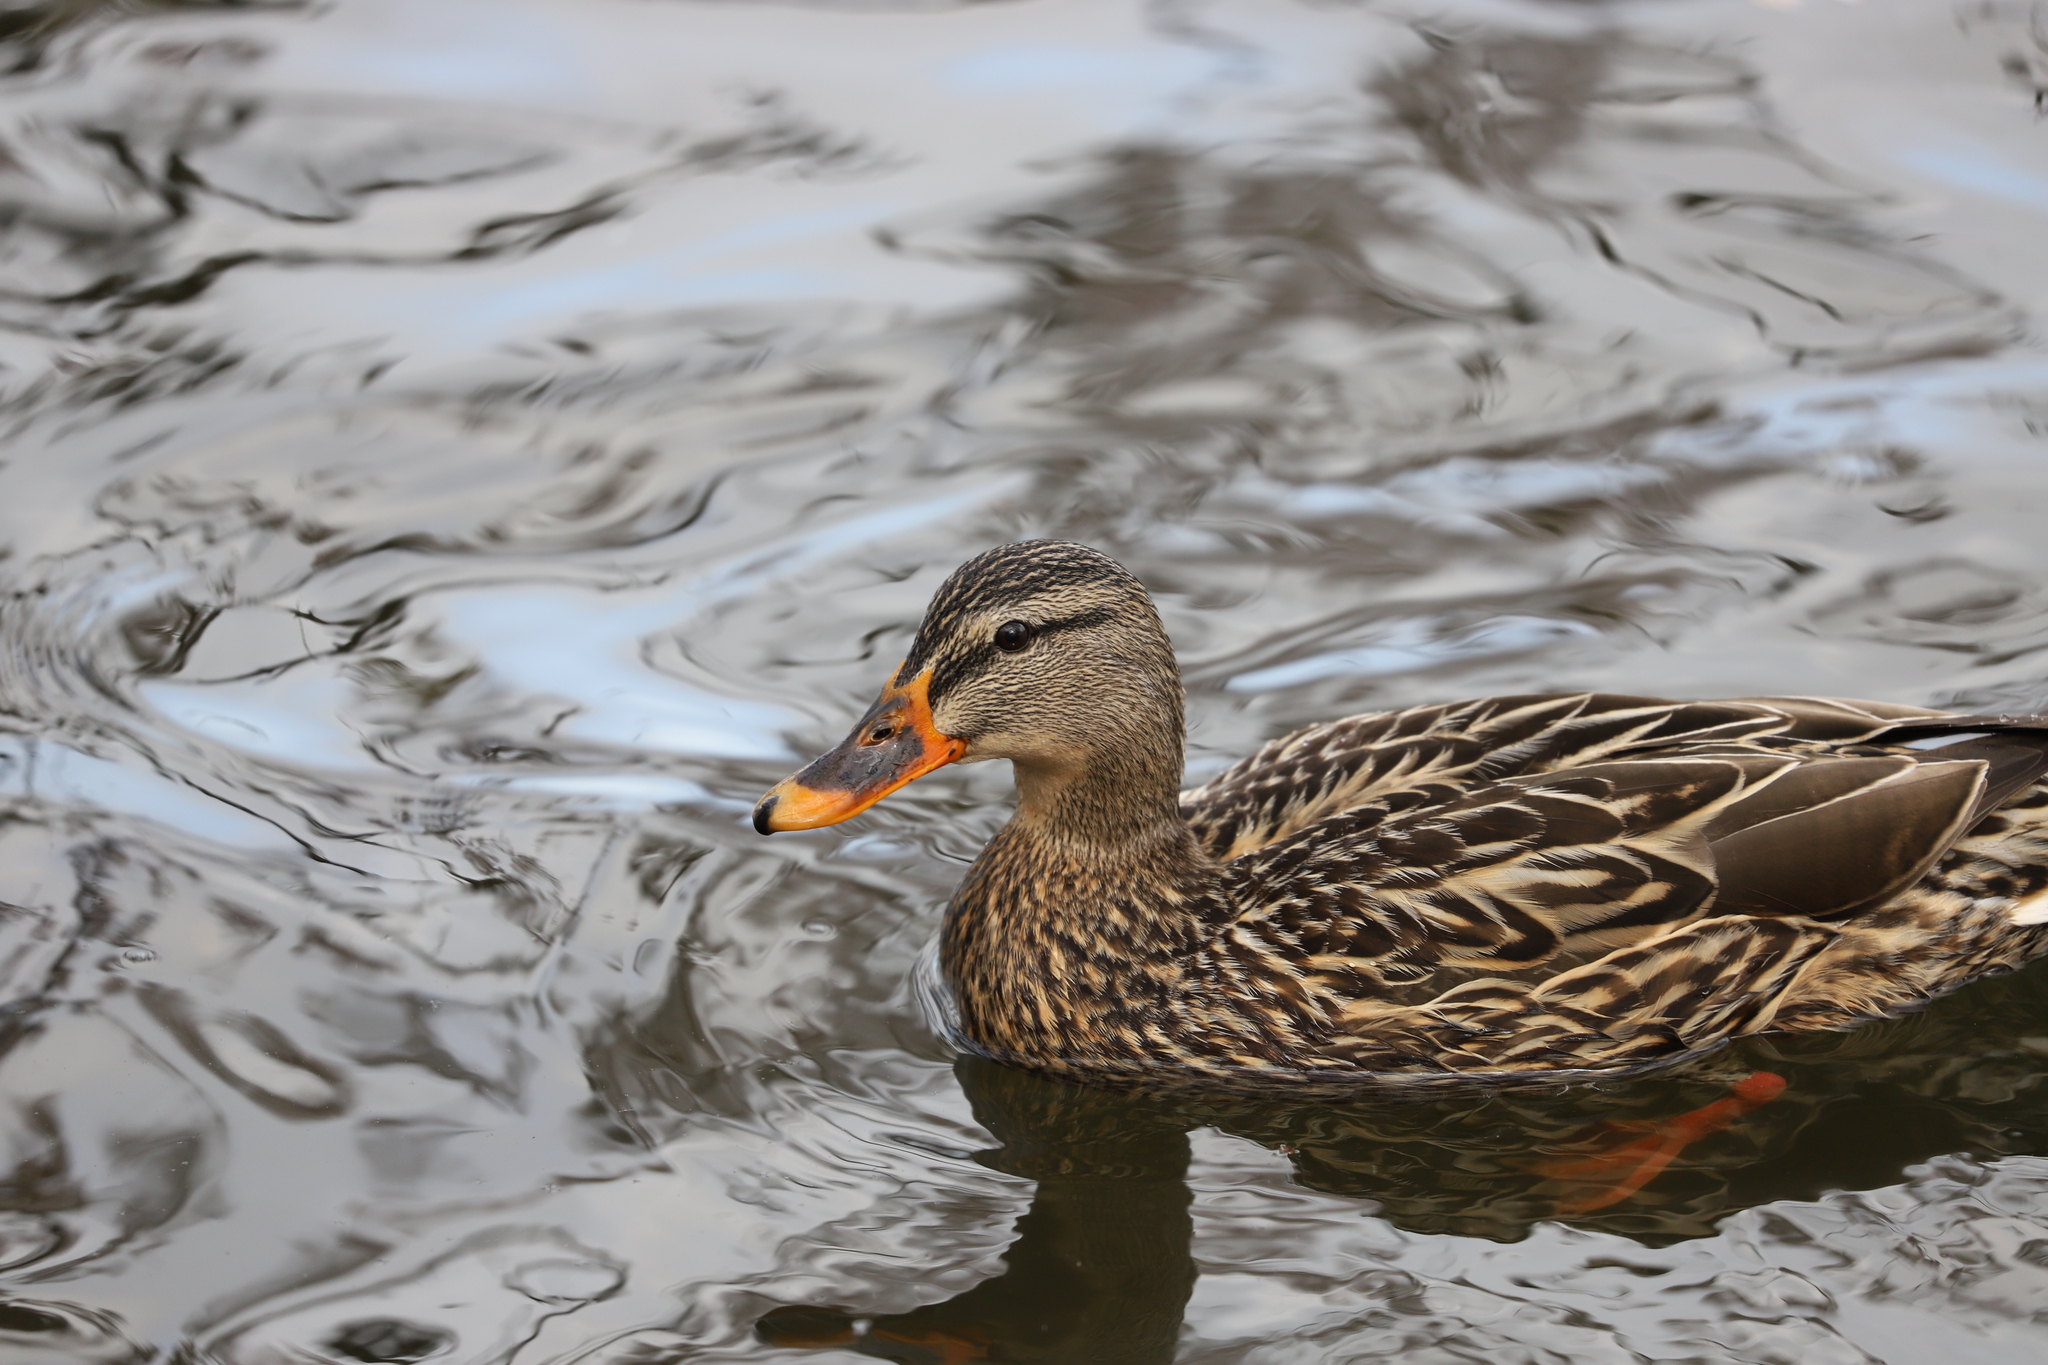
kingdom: Animalia
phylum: Chordata
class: Aves
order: Anseriformes
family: Anatidae
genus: Anas
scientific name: Anas platyrhynchos
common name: Mallard
